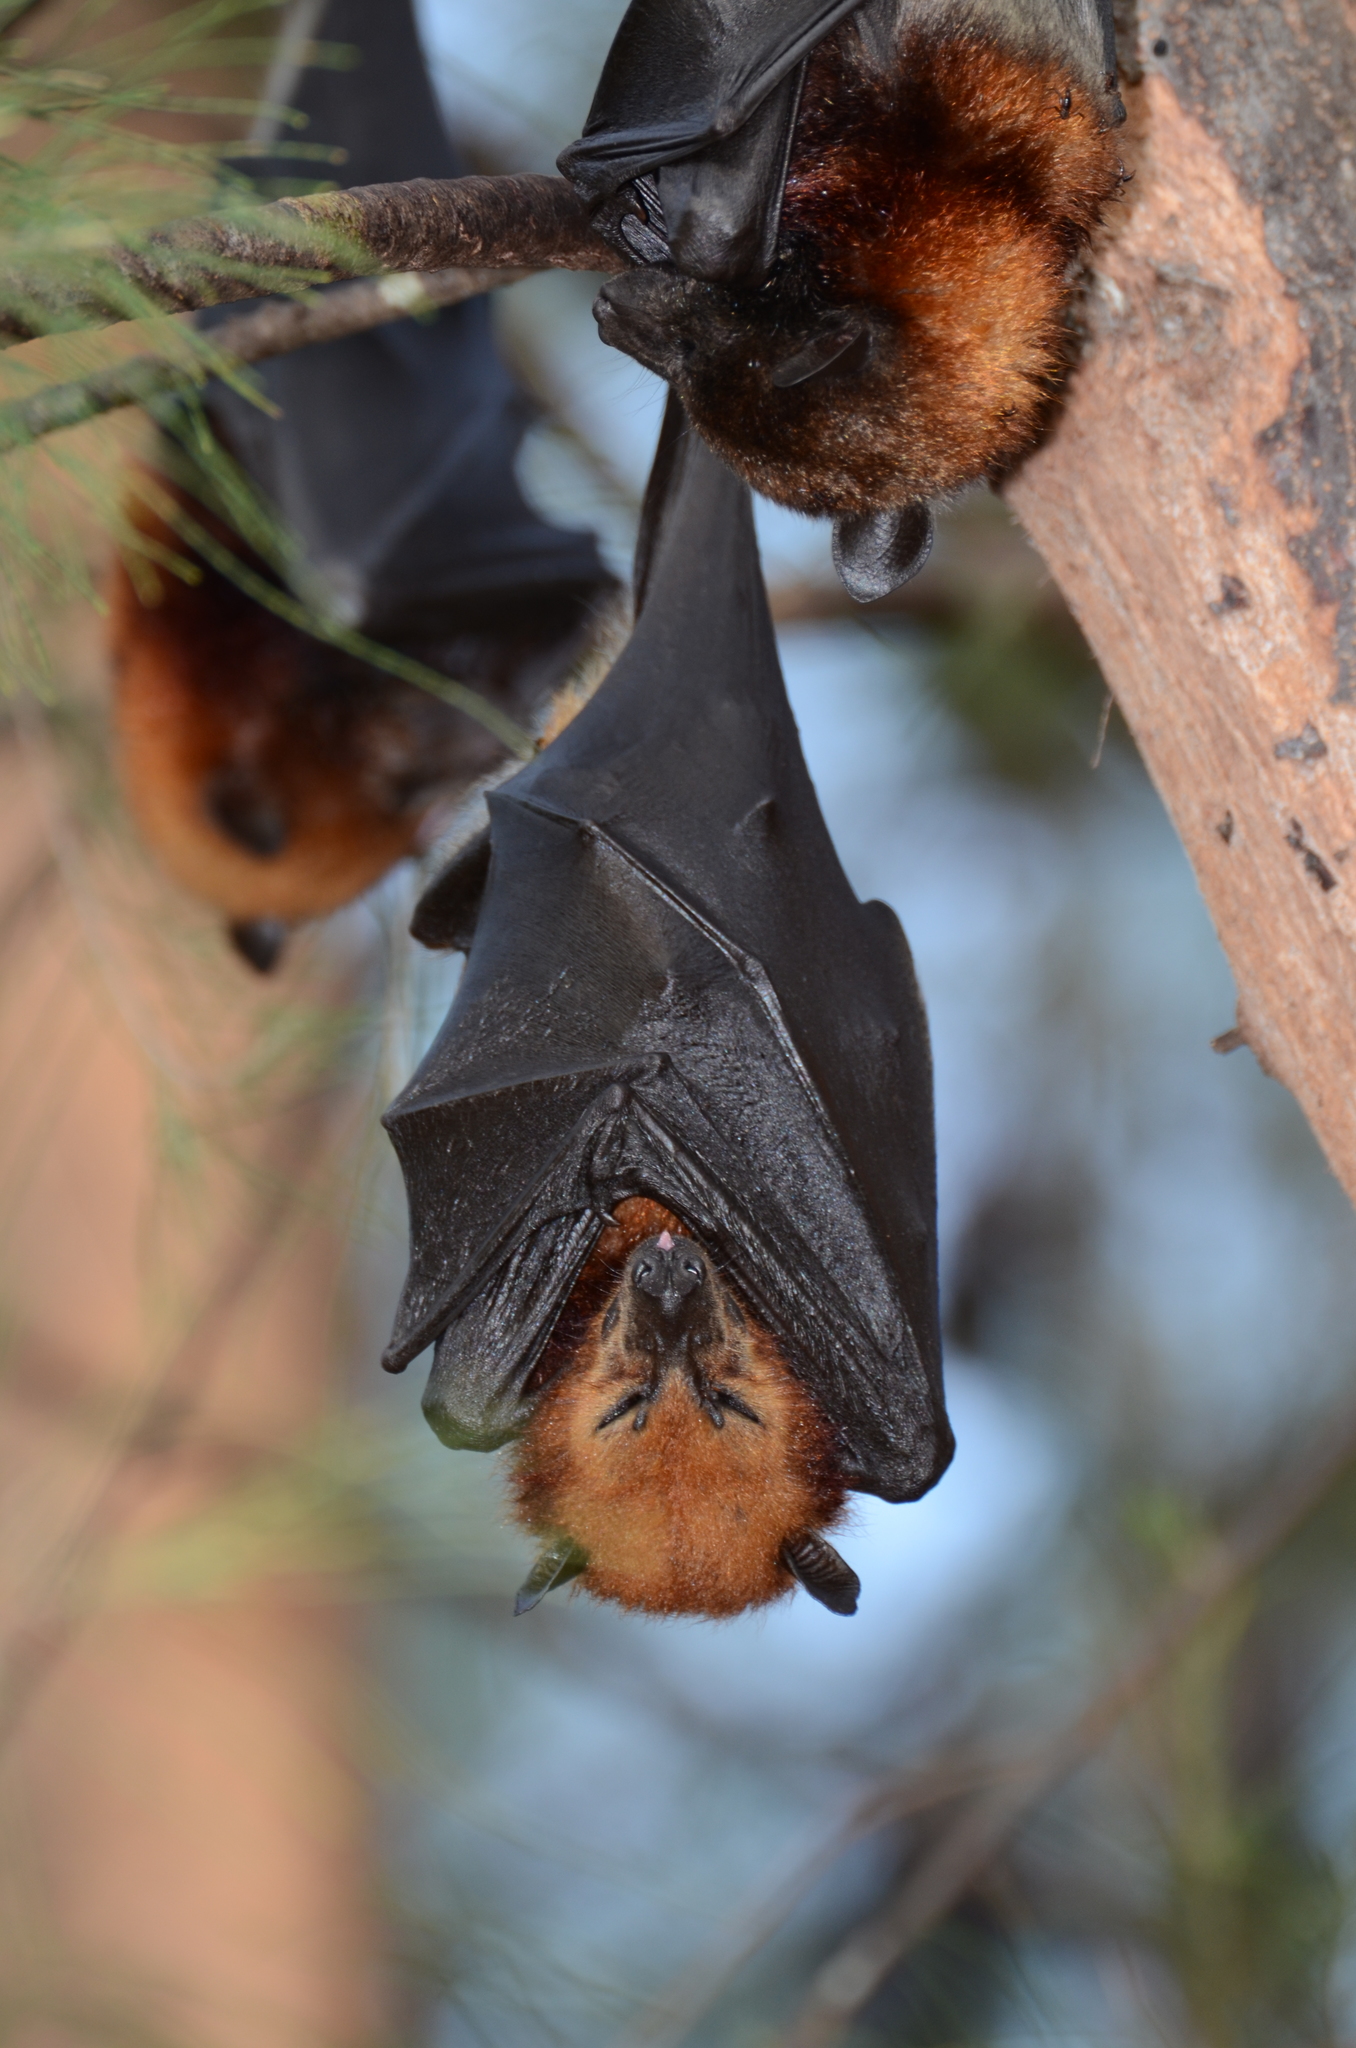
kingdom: Animalia
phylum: Chordata
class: Mammalia
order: Chiroptera
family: Pteropodidae
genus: Pteropus
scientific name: Pteropus hypomelanus
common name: Variable flying fox
